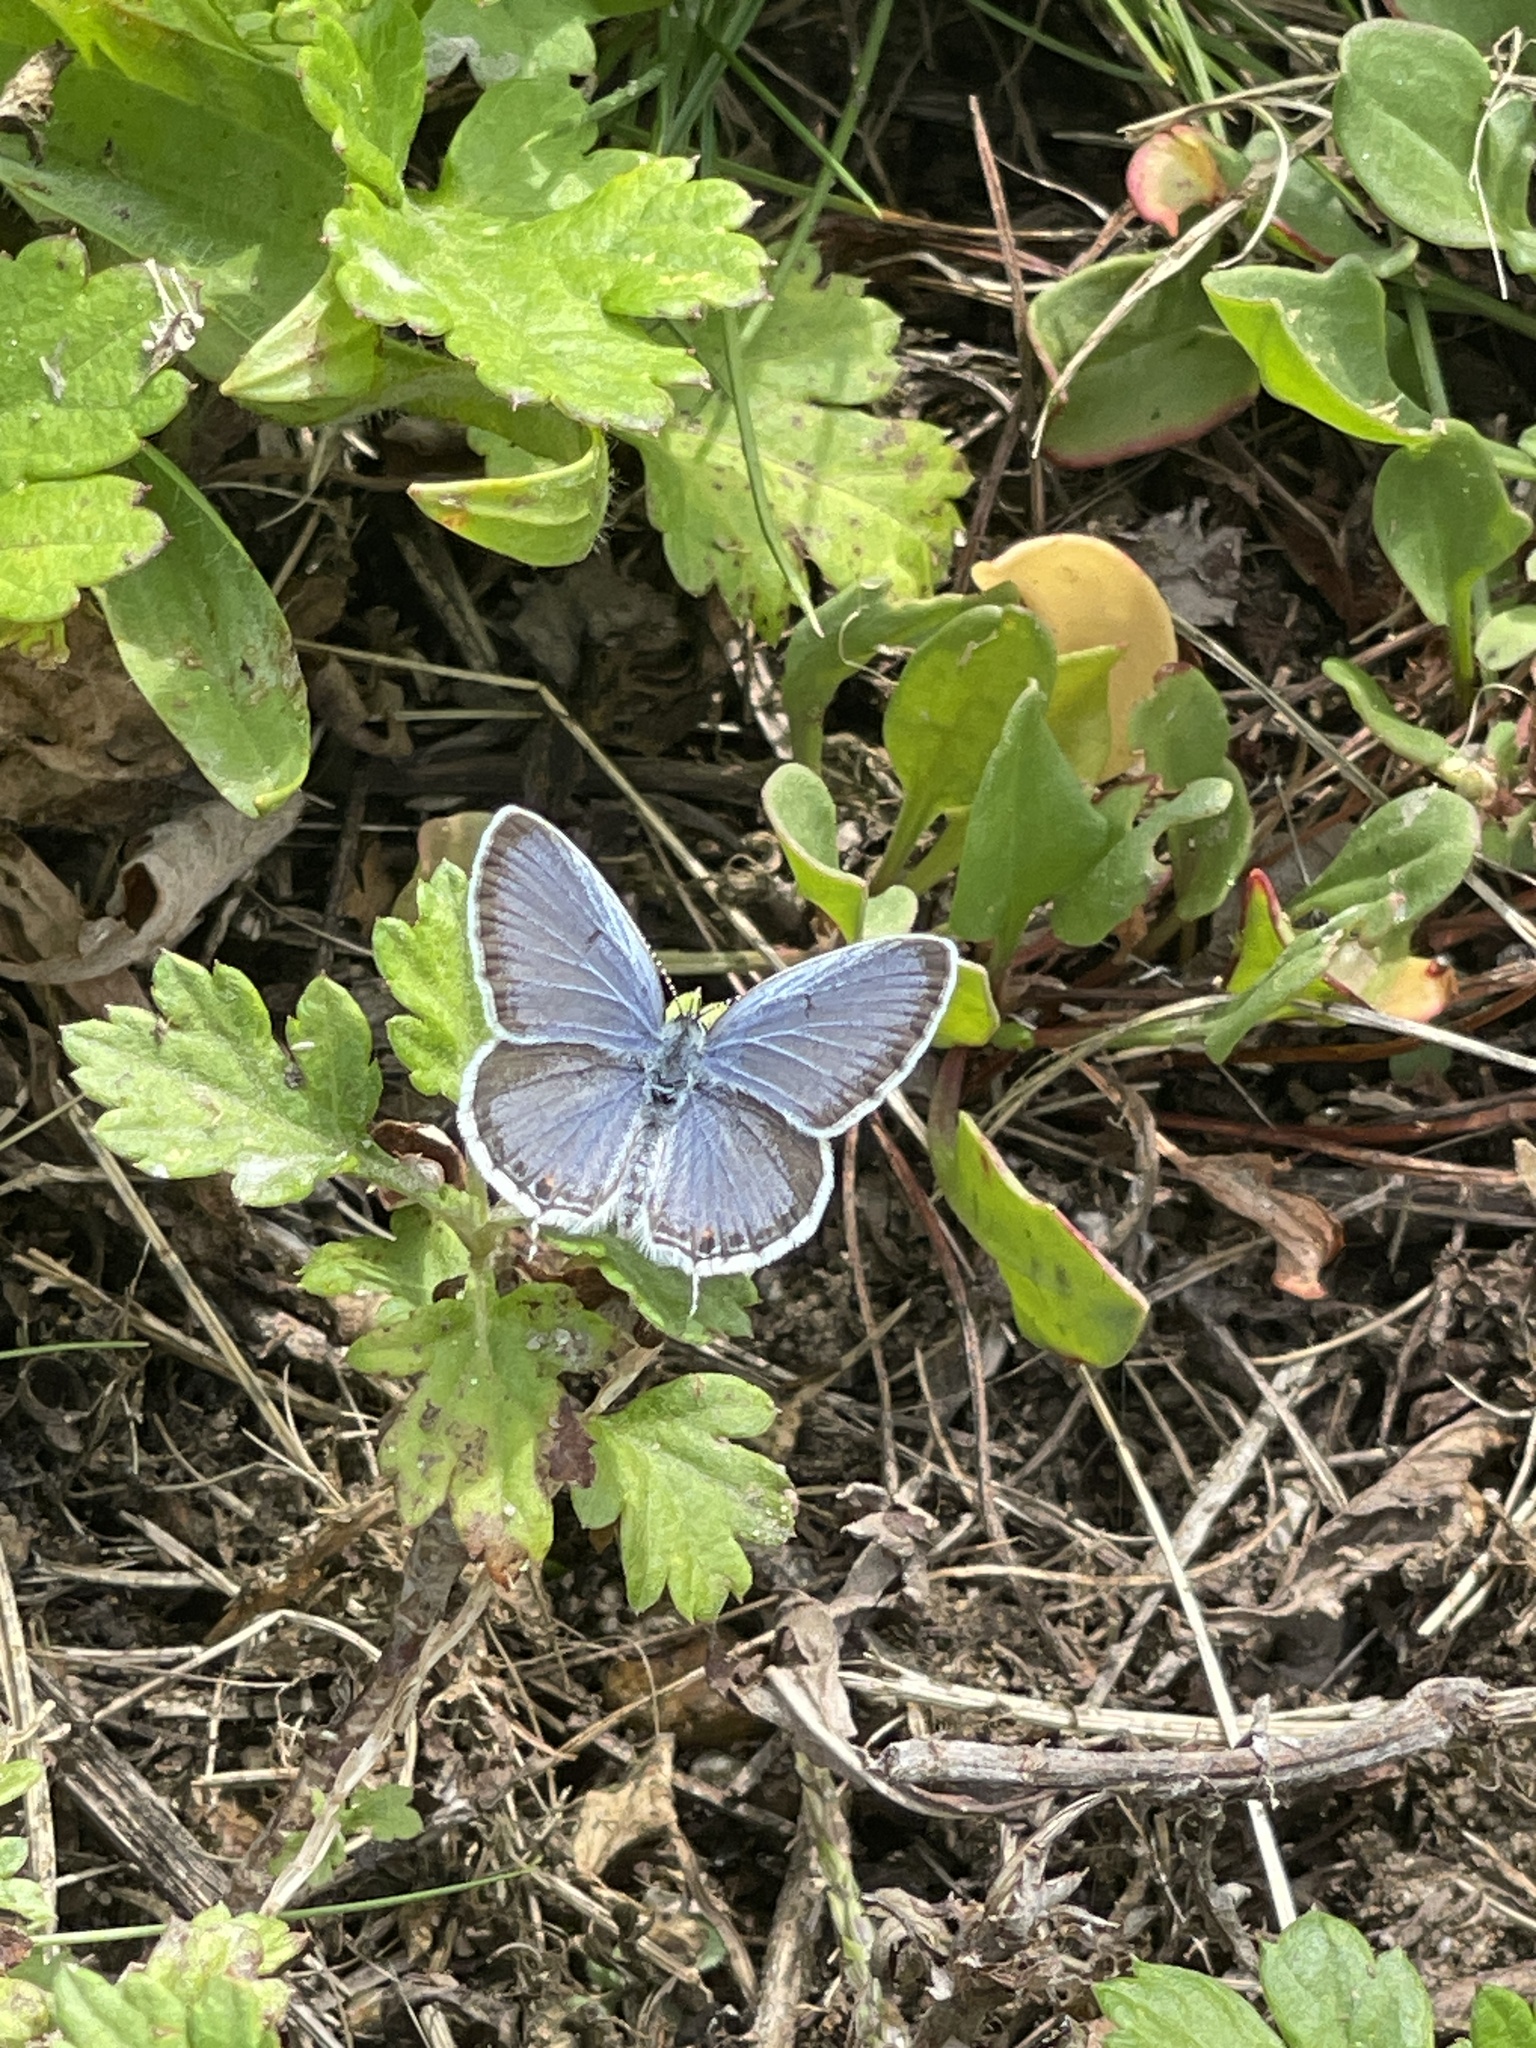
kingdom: Animalia
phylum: Arthropoda
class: Insecta
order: Lepidoptera
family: Lycaenidae
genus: Elkalyce
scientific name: Elkalyce comyntas
